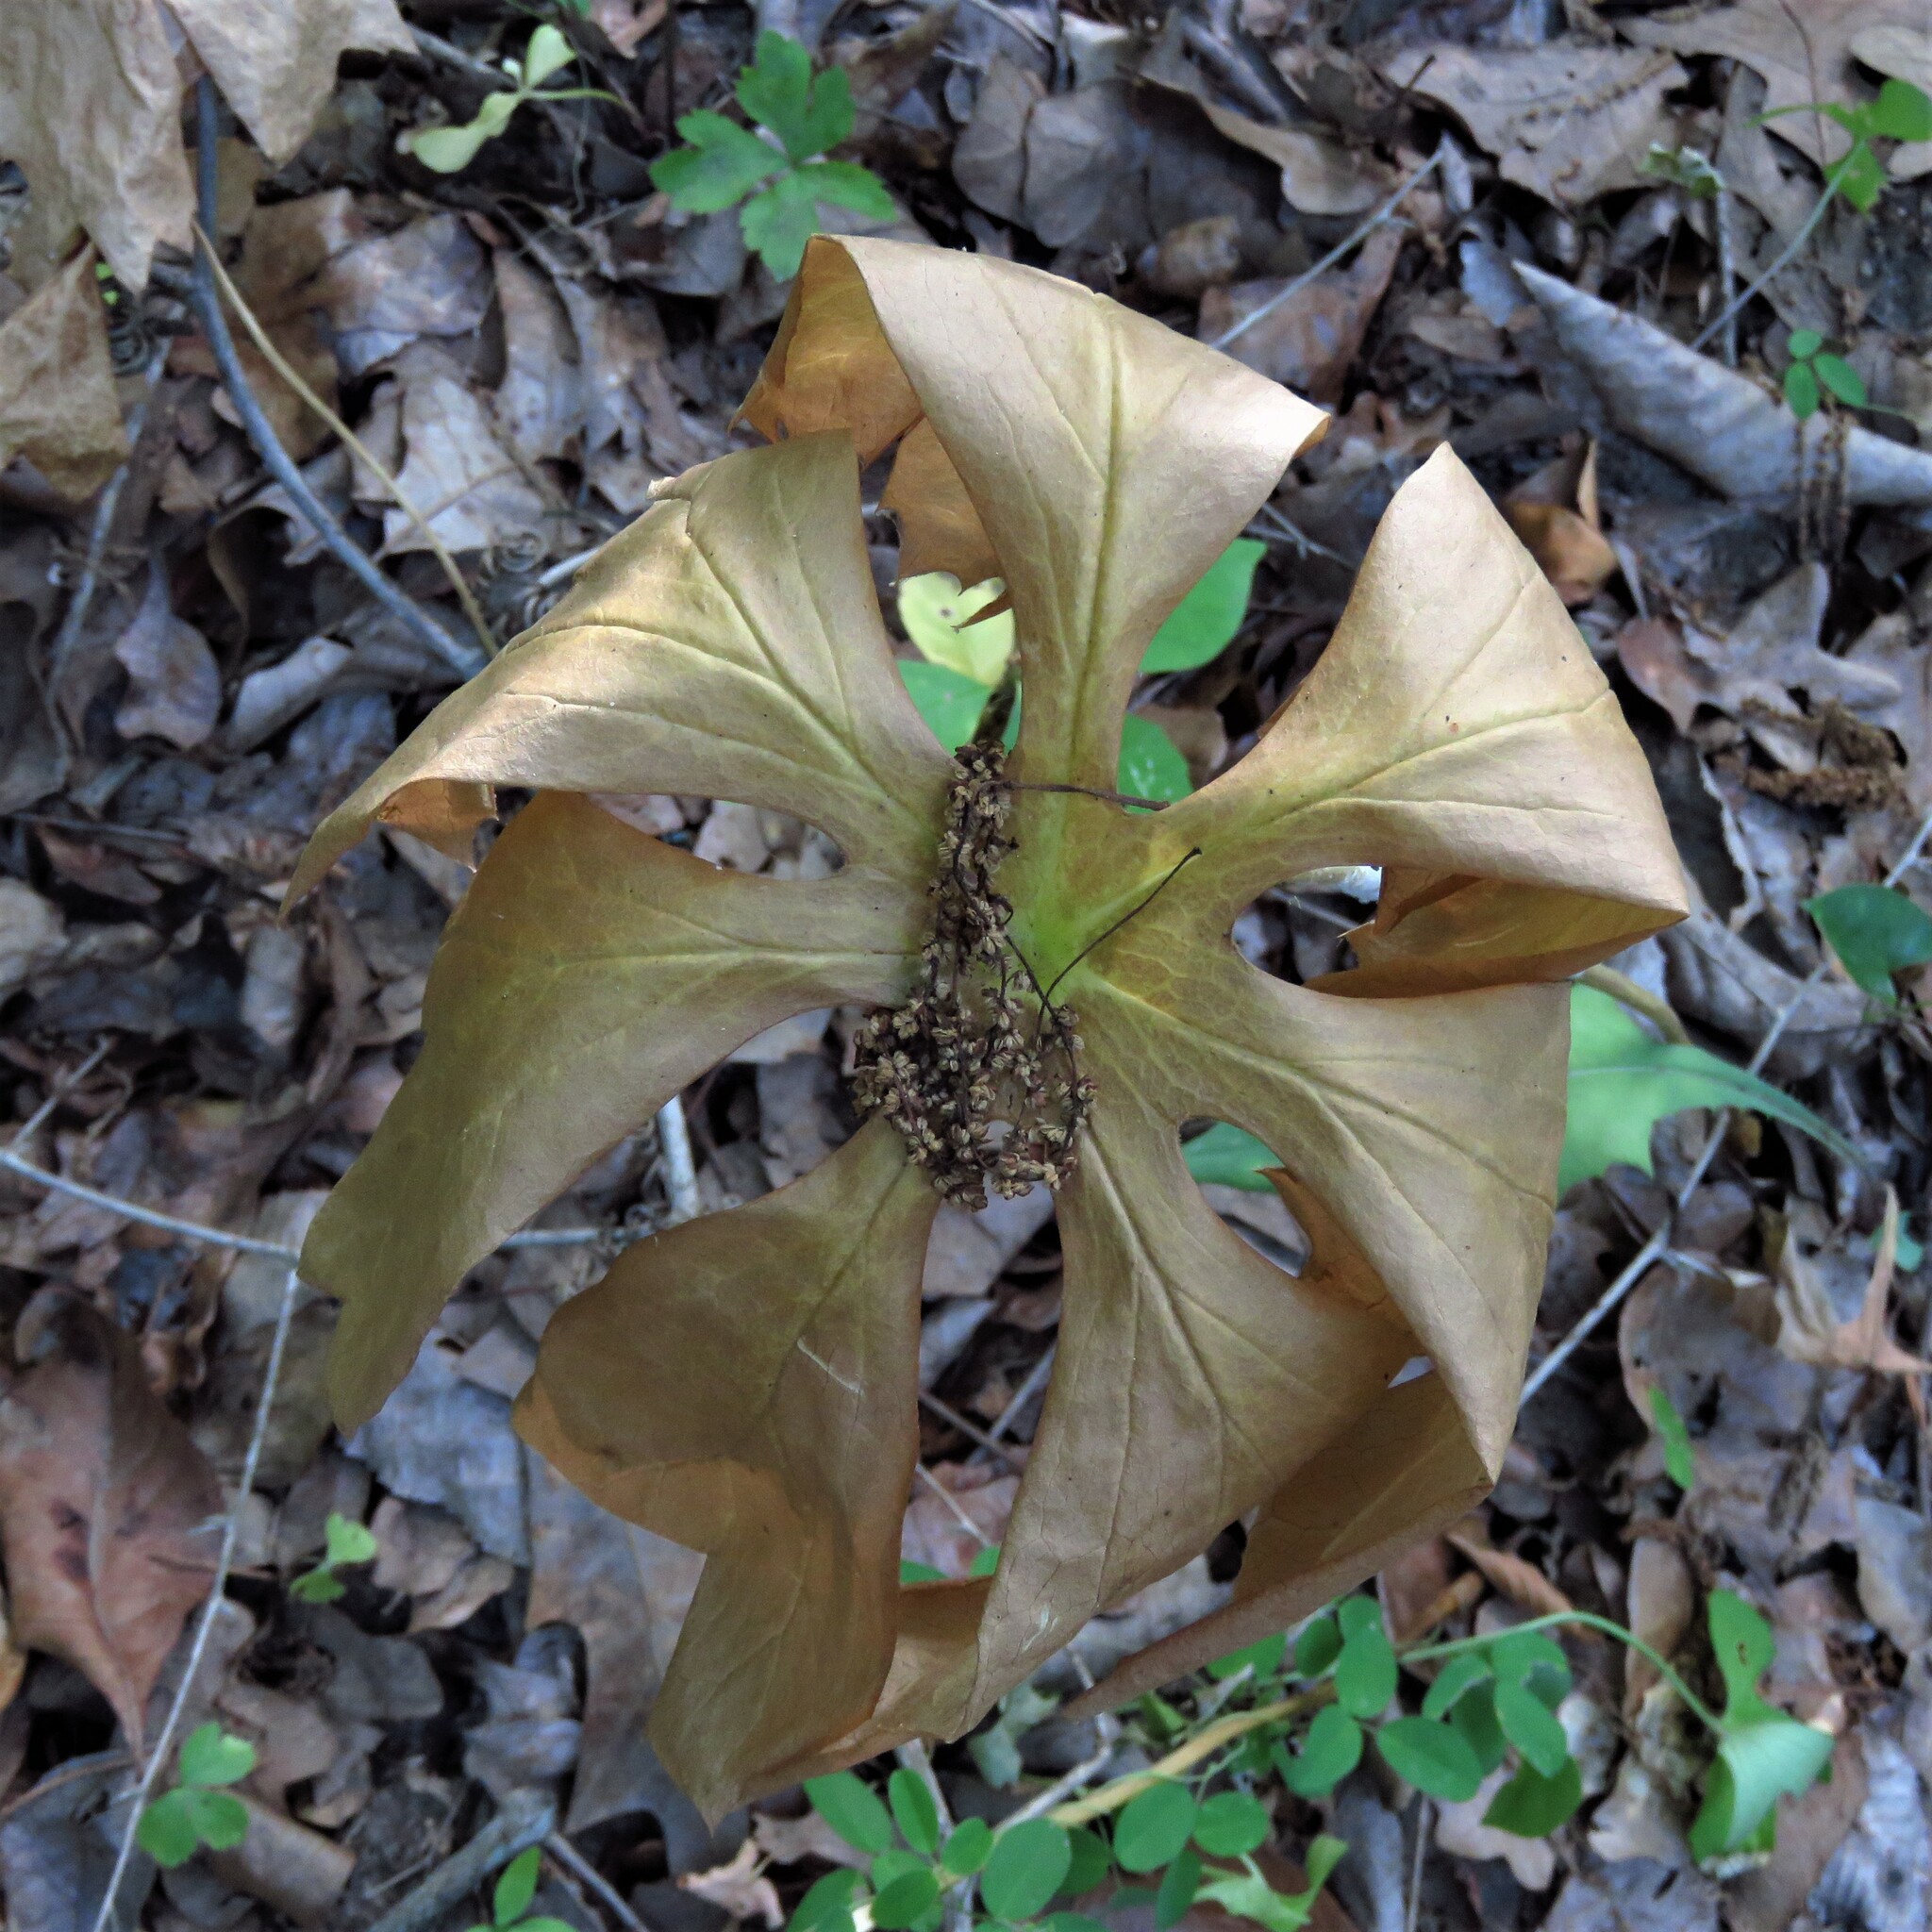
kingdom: Plantae
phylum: Tracheophyta
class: Magnoliopsida
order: Ranunculales
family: Berberidaceae
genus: Podophyllum
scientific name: Podophyllum peltatum
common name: Wild mandrake
